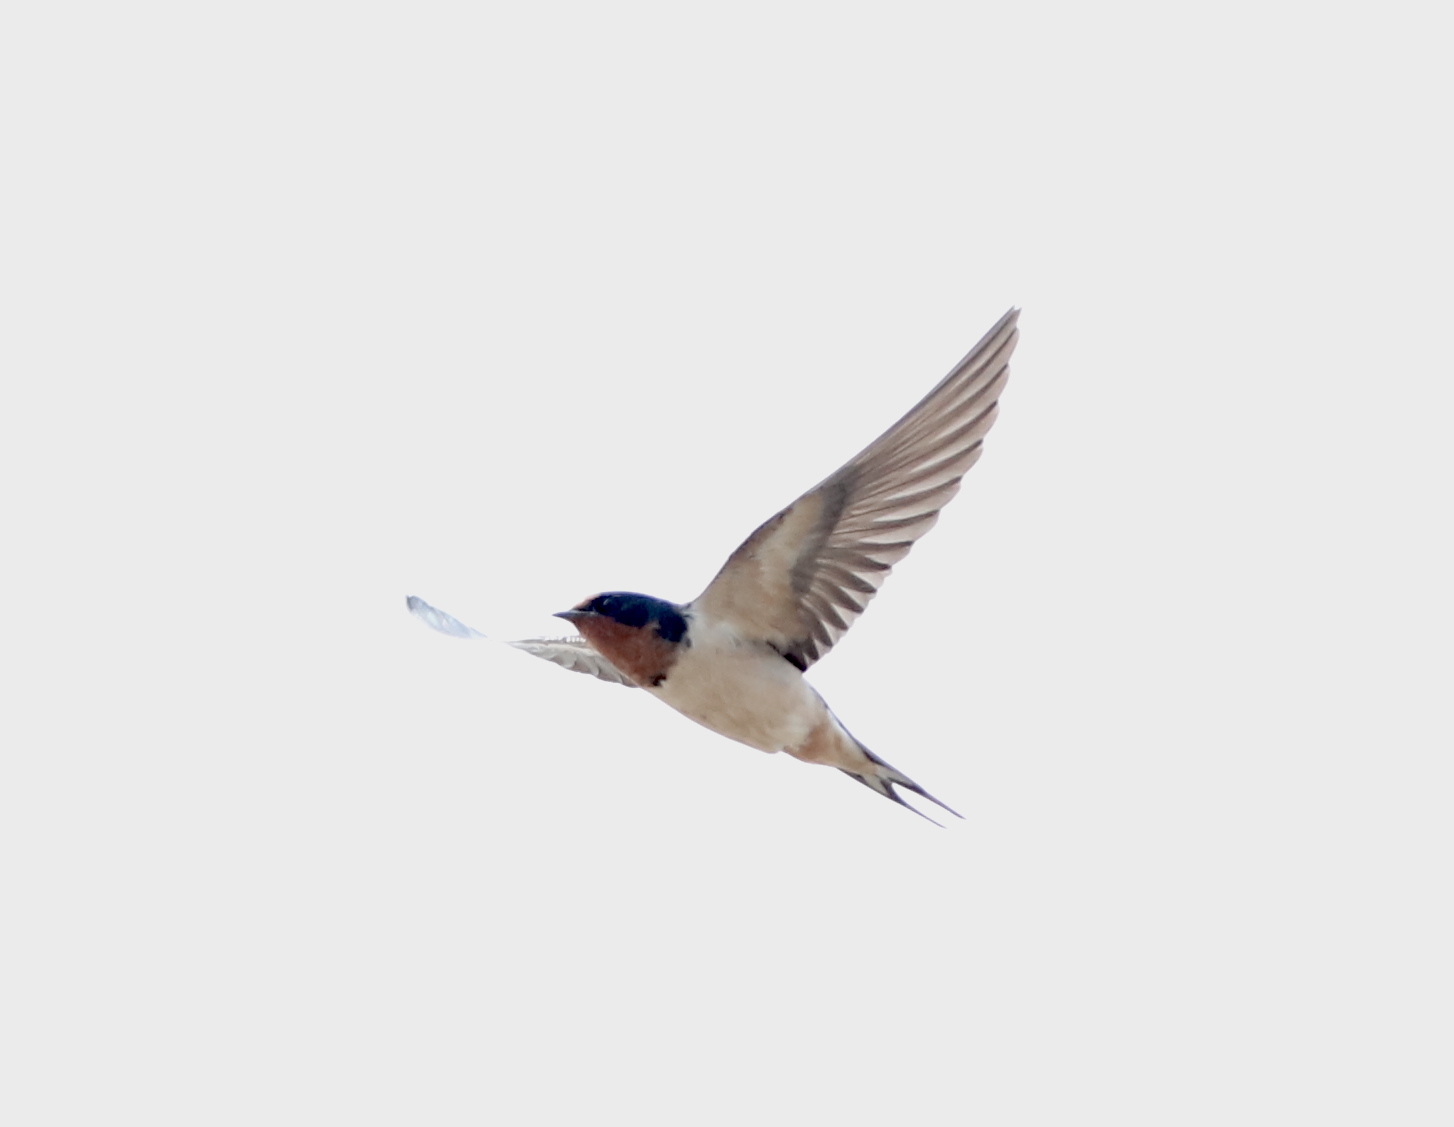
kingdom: Animalia
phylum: Chordata
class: Aves
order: Passeriformes
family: Hirundinidae
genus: Hirundo
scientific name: Hirundo rustica
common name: Barn swallow
